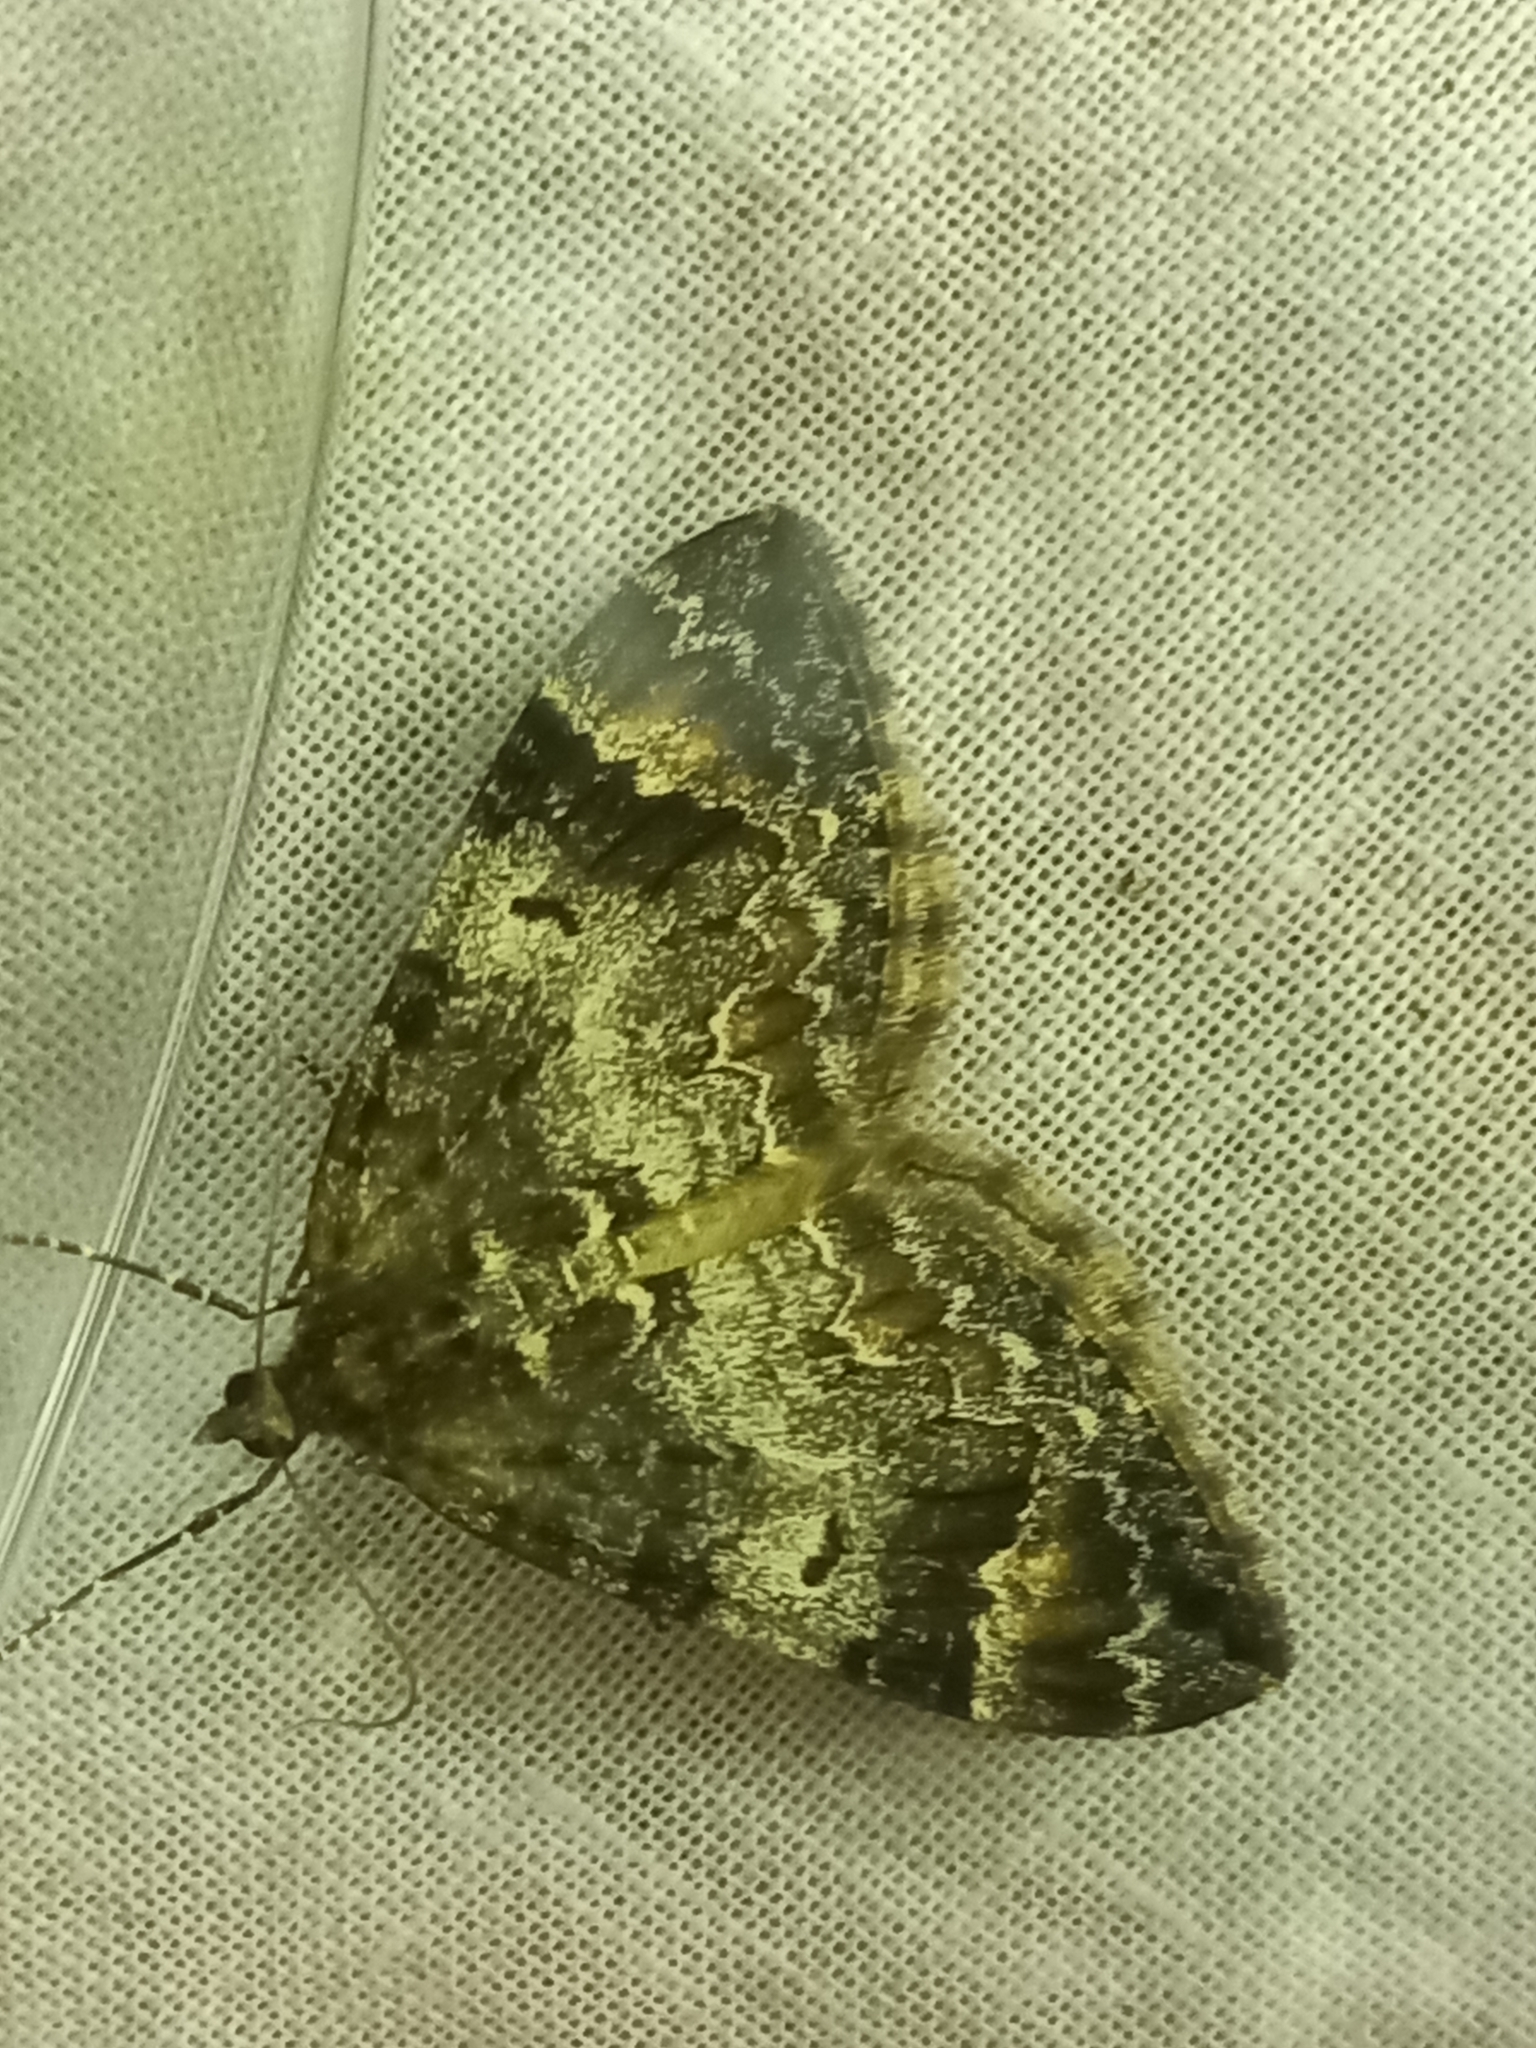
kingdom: Animalia
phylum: Arthropoda
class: Insecta
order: Lepidoptera
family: Geometridae
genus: Dysstroma
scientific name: Dysstroma truncata
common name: Common marbled carpet
